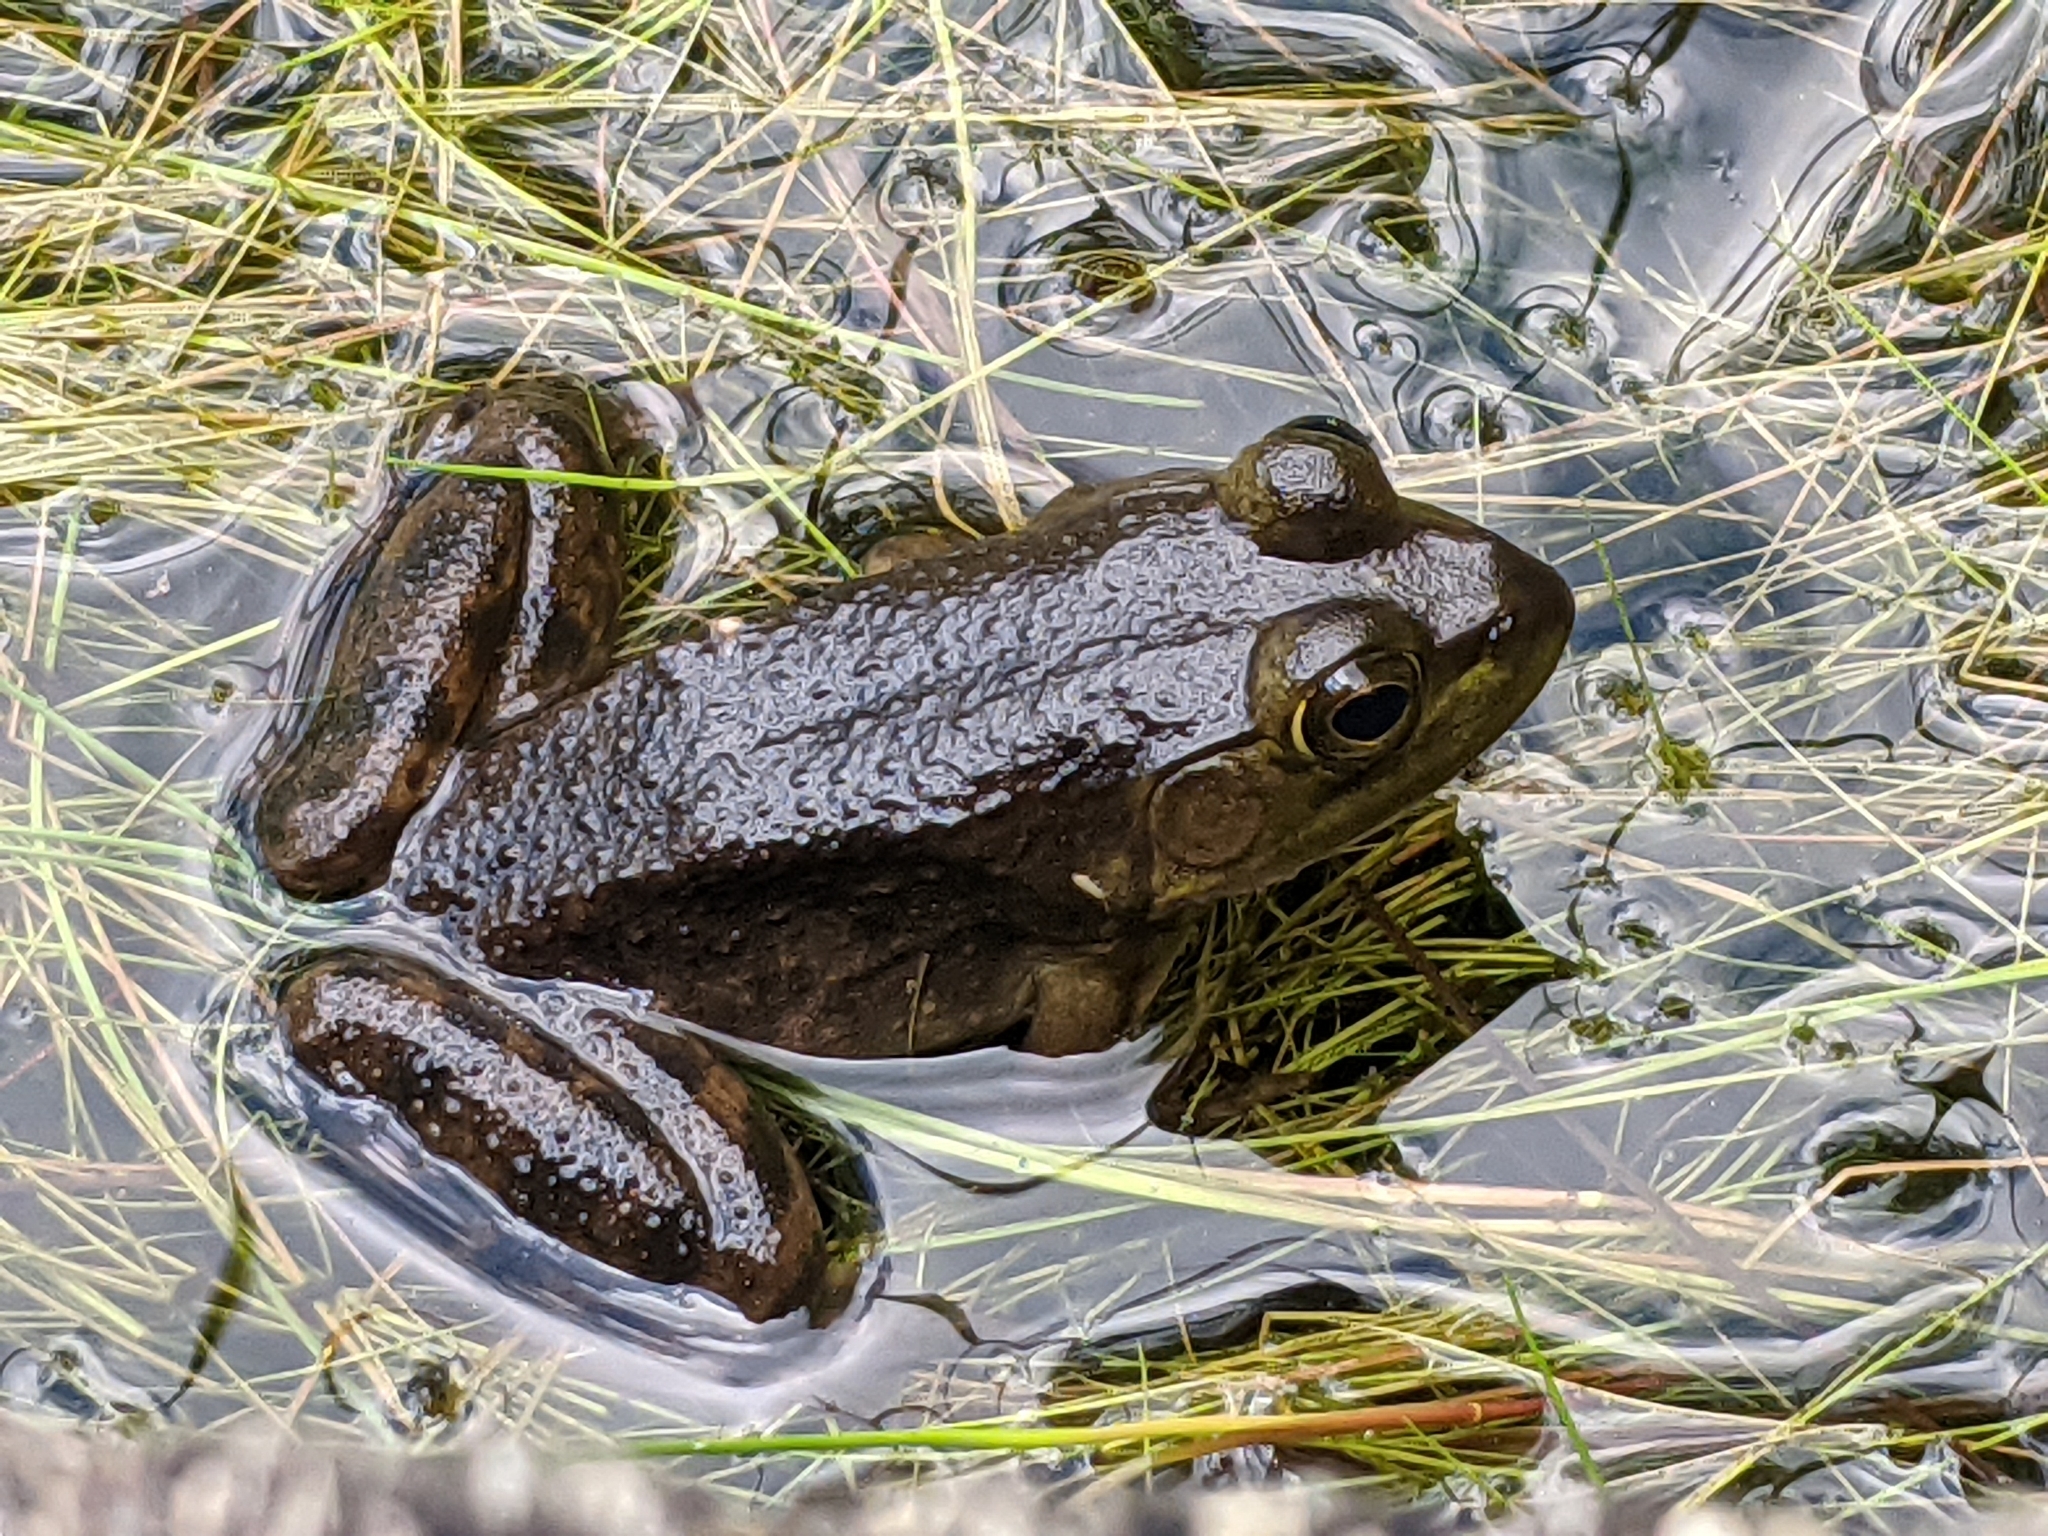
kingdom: Animalia
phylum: Chordata
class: Amphibia
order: Anura
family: Ranidae
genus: Lithobates
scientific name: Lithobates catesbeianus
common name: American bullfrog
